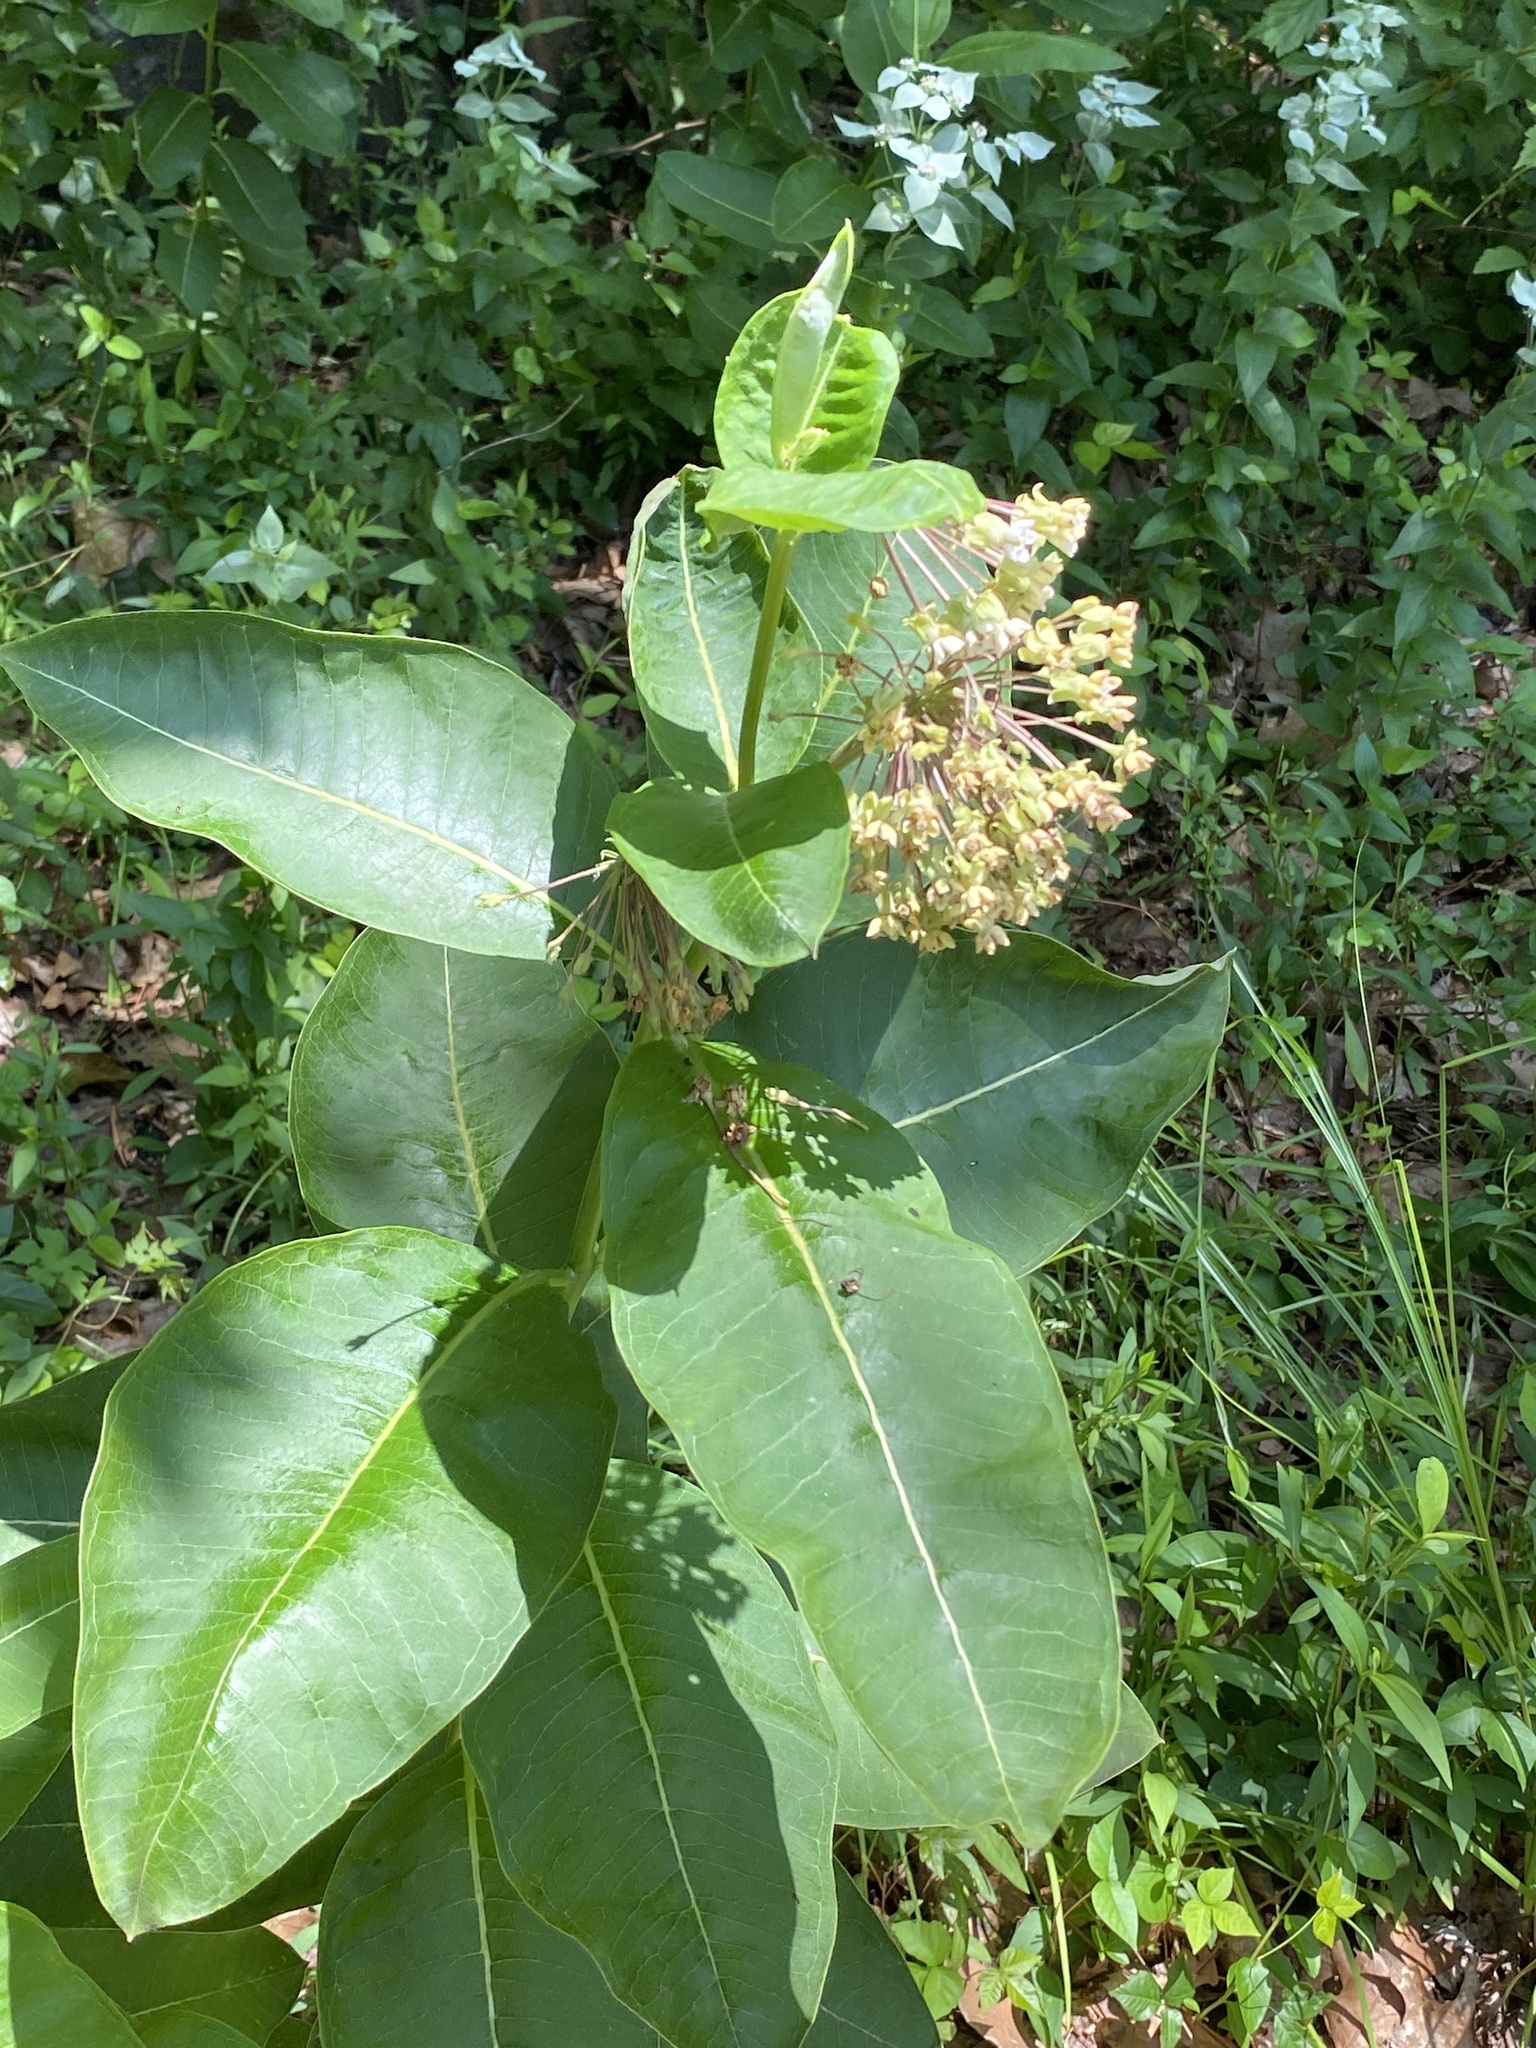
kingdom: Plantae
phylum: Tracheophyta
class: Magnoliopsida
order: Gentianales
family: Apocynaceae
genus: Asclepias
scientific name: Asclepias syriaca
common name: Common milkweed
